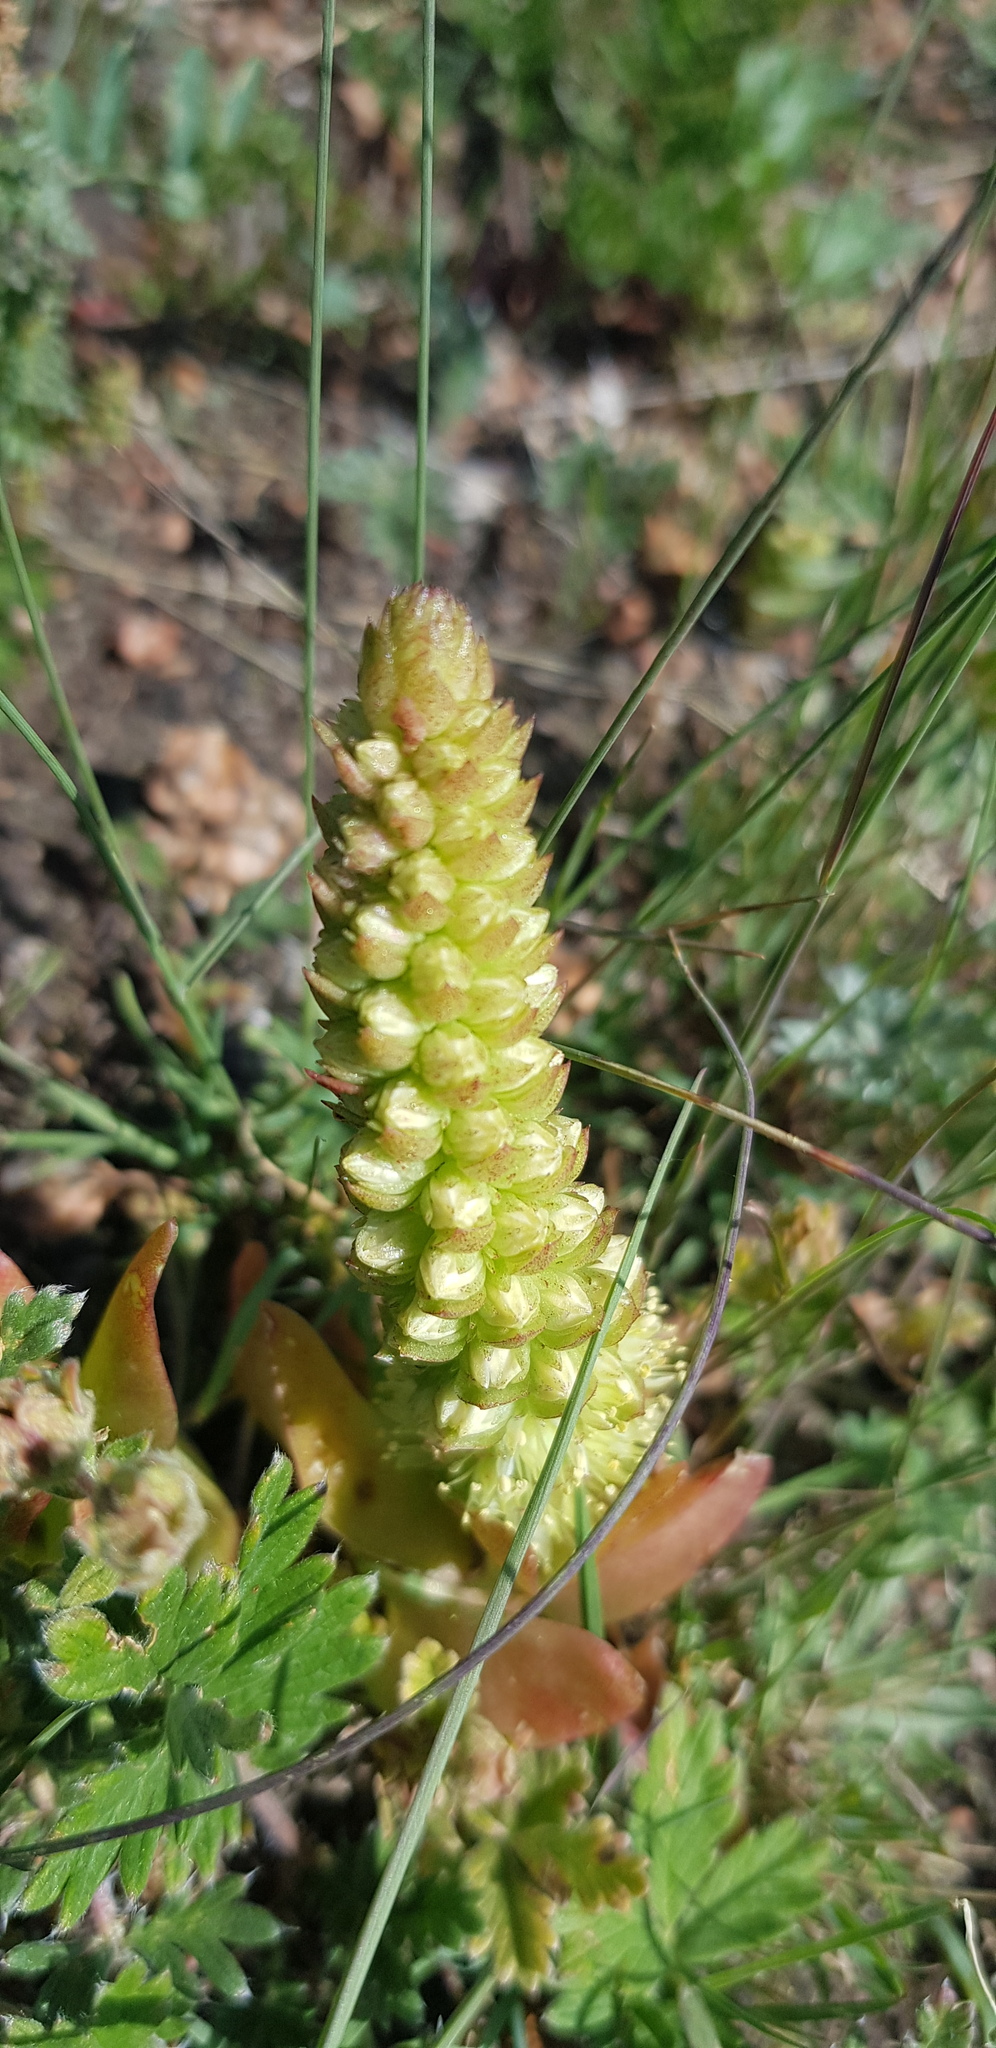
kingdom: Plantae
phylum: Tracheophyta
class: Magnoliopsida
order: Saxifragales
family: Crassulaceae
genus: Orostachys
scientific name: Orostachys malacophylla
